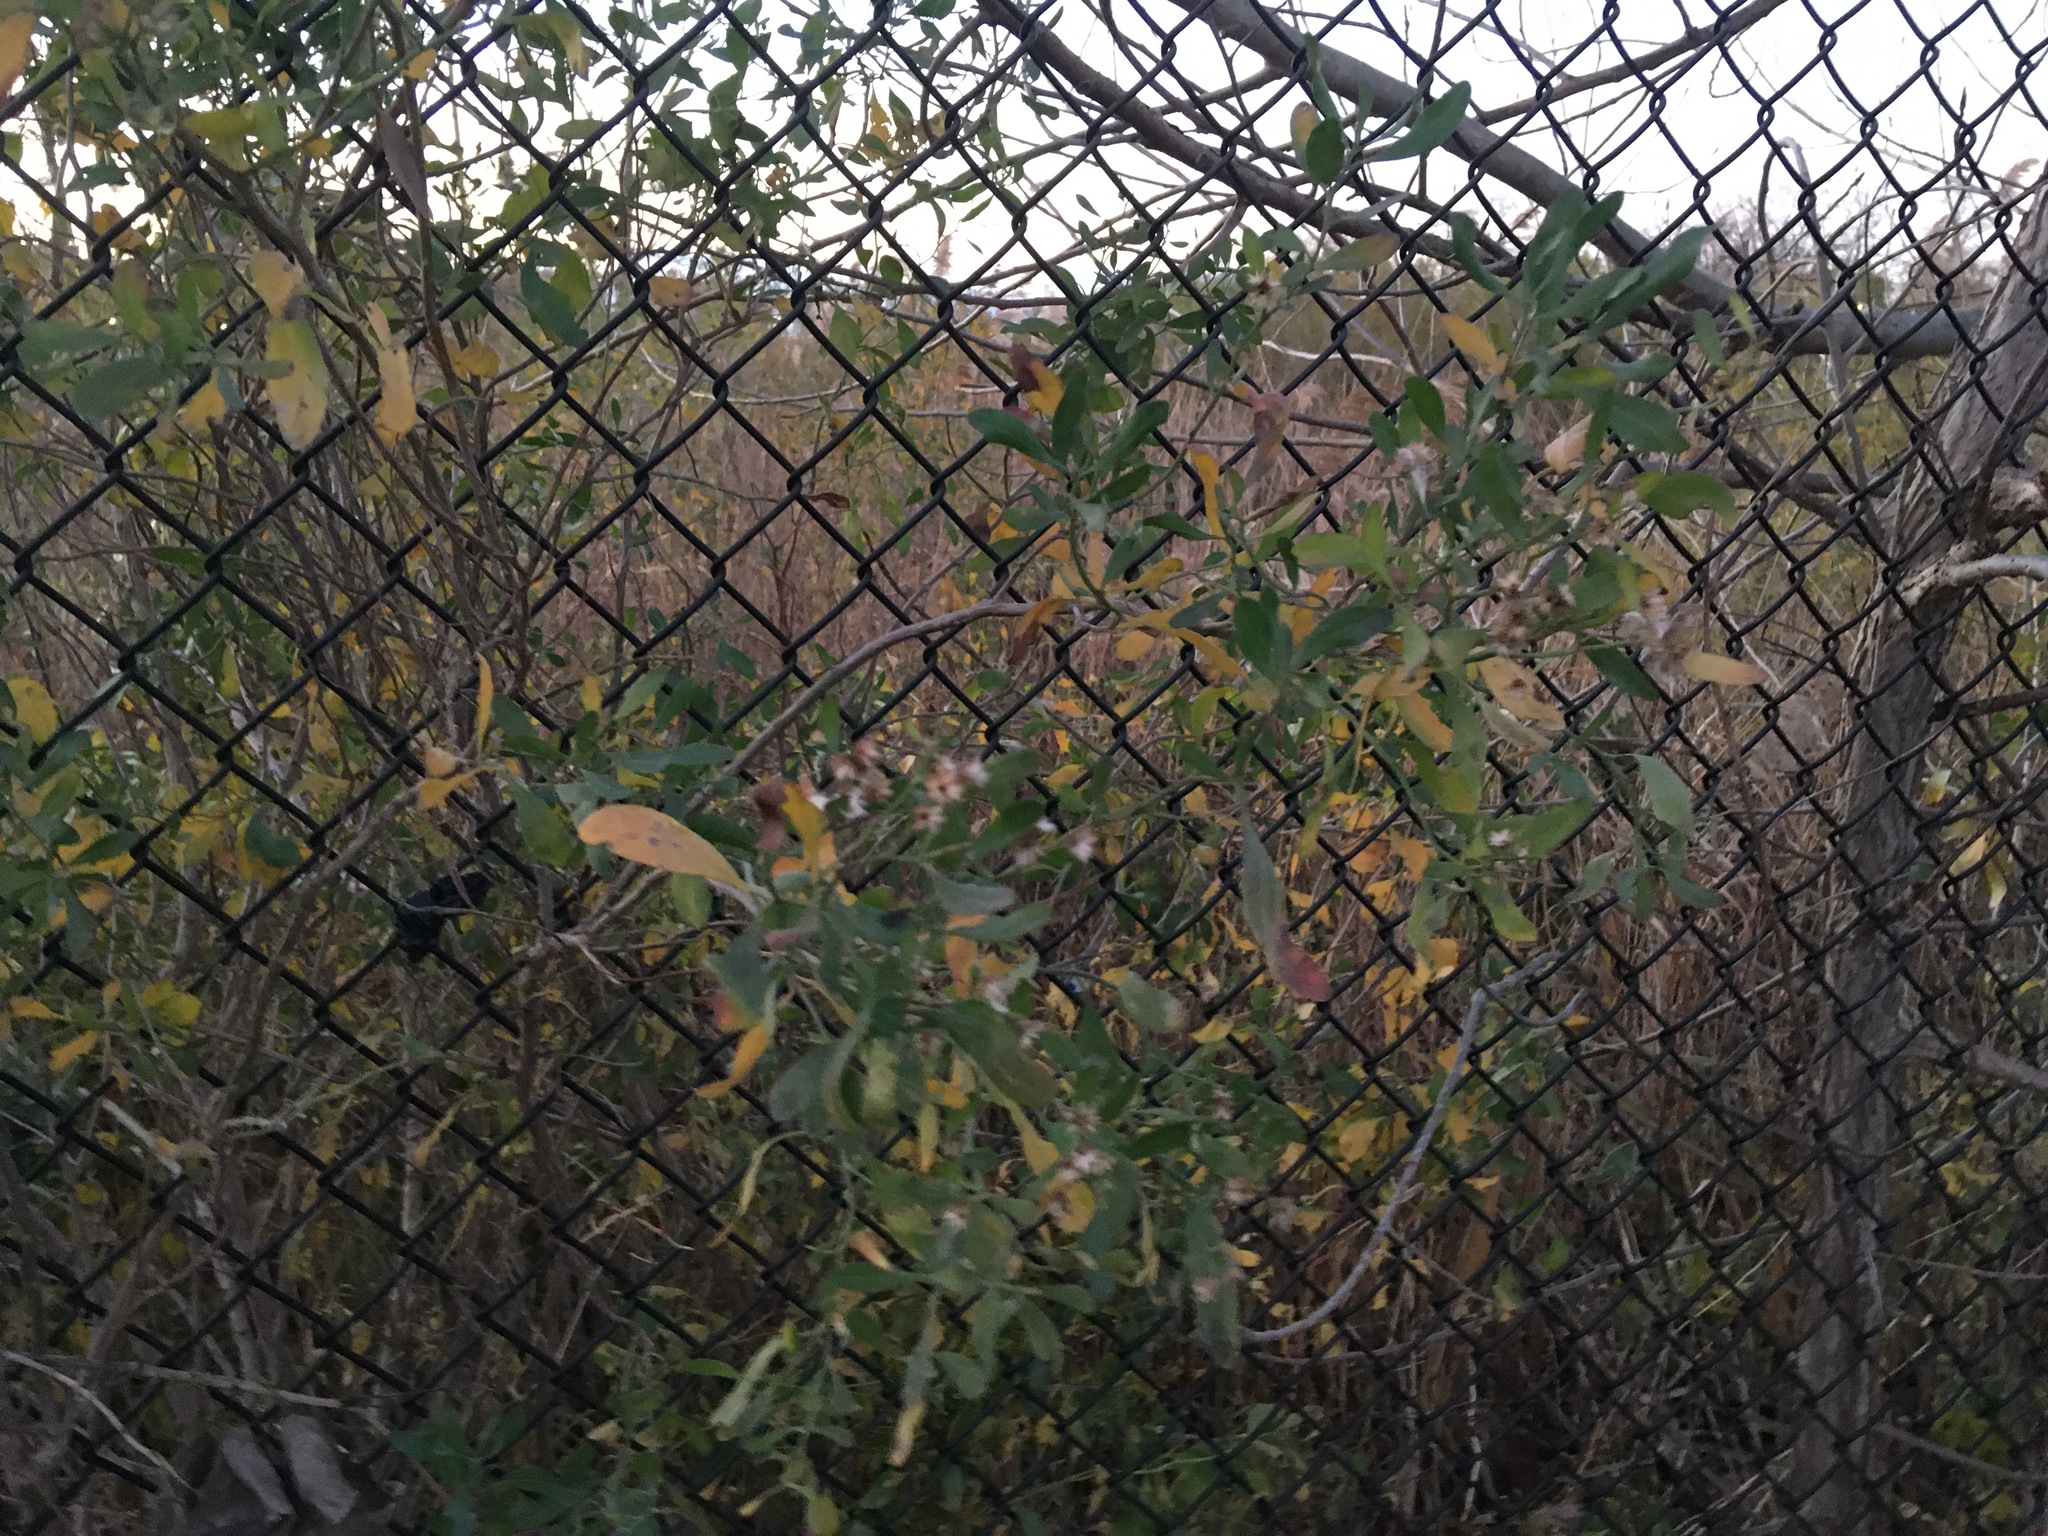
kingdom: Plantae
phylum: Tracheophyta
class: Magnoliopsida
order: Asterales
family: Asteraceae
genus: Baccharis
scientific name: Baccharis halimifolia
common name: Eastern baccharis
